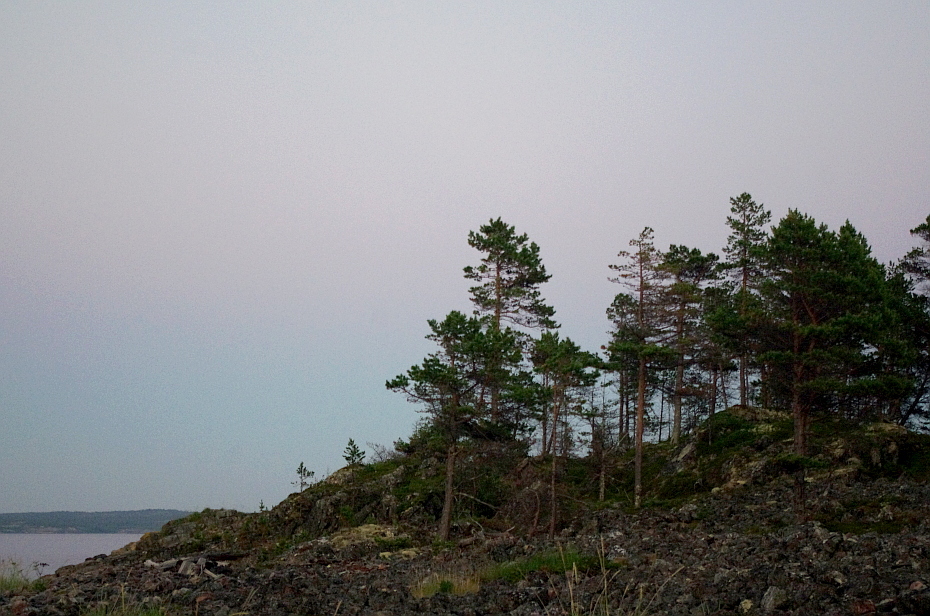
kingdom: Plantae
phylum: Tracheophyta
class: Pinopsida
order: Pinales
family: Pinaceae
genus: Pinus
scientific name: Pinus sylvestris
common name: Scots pine
